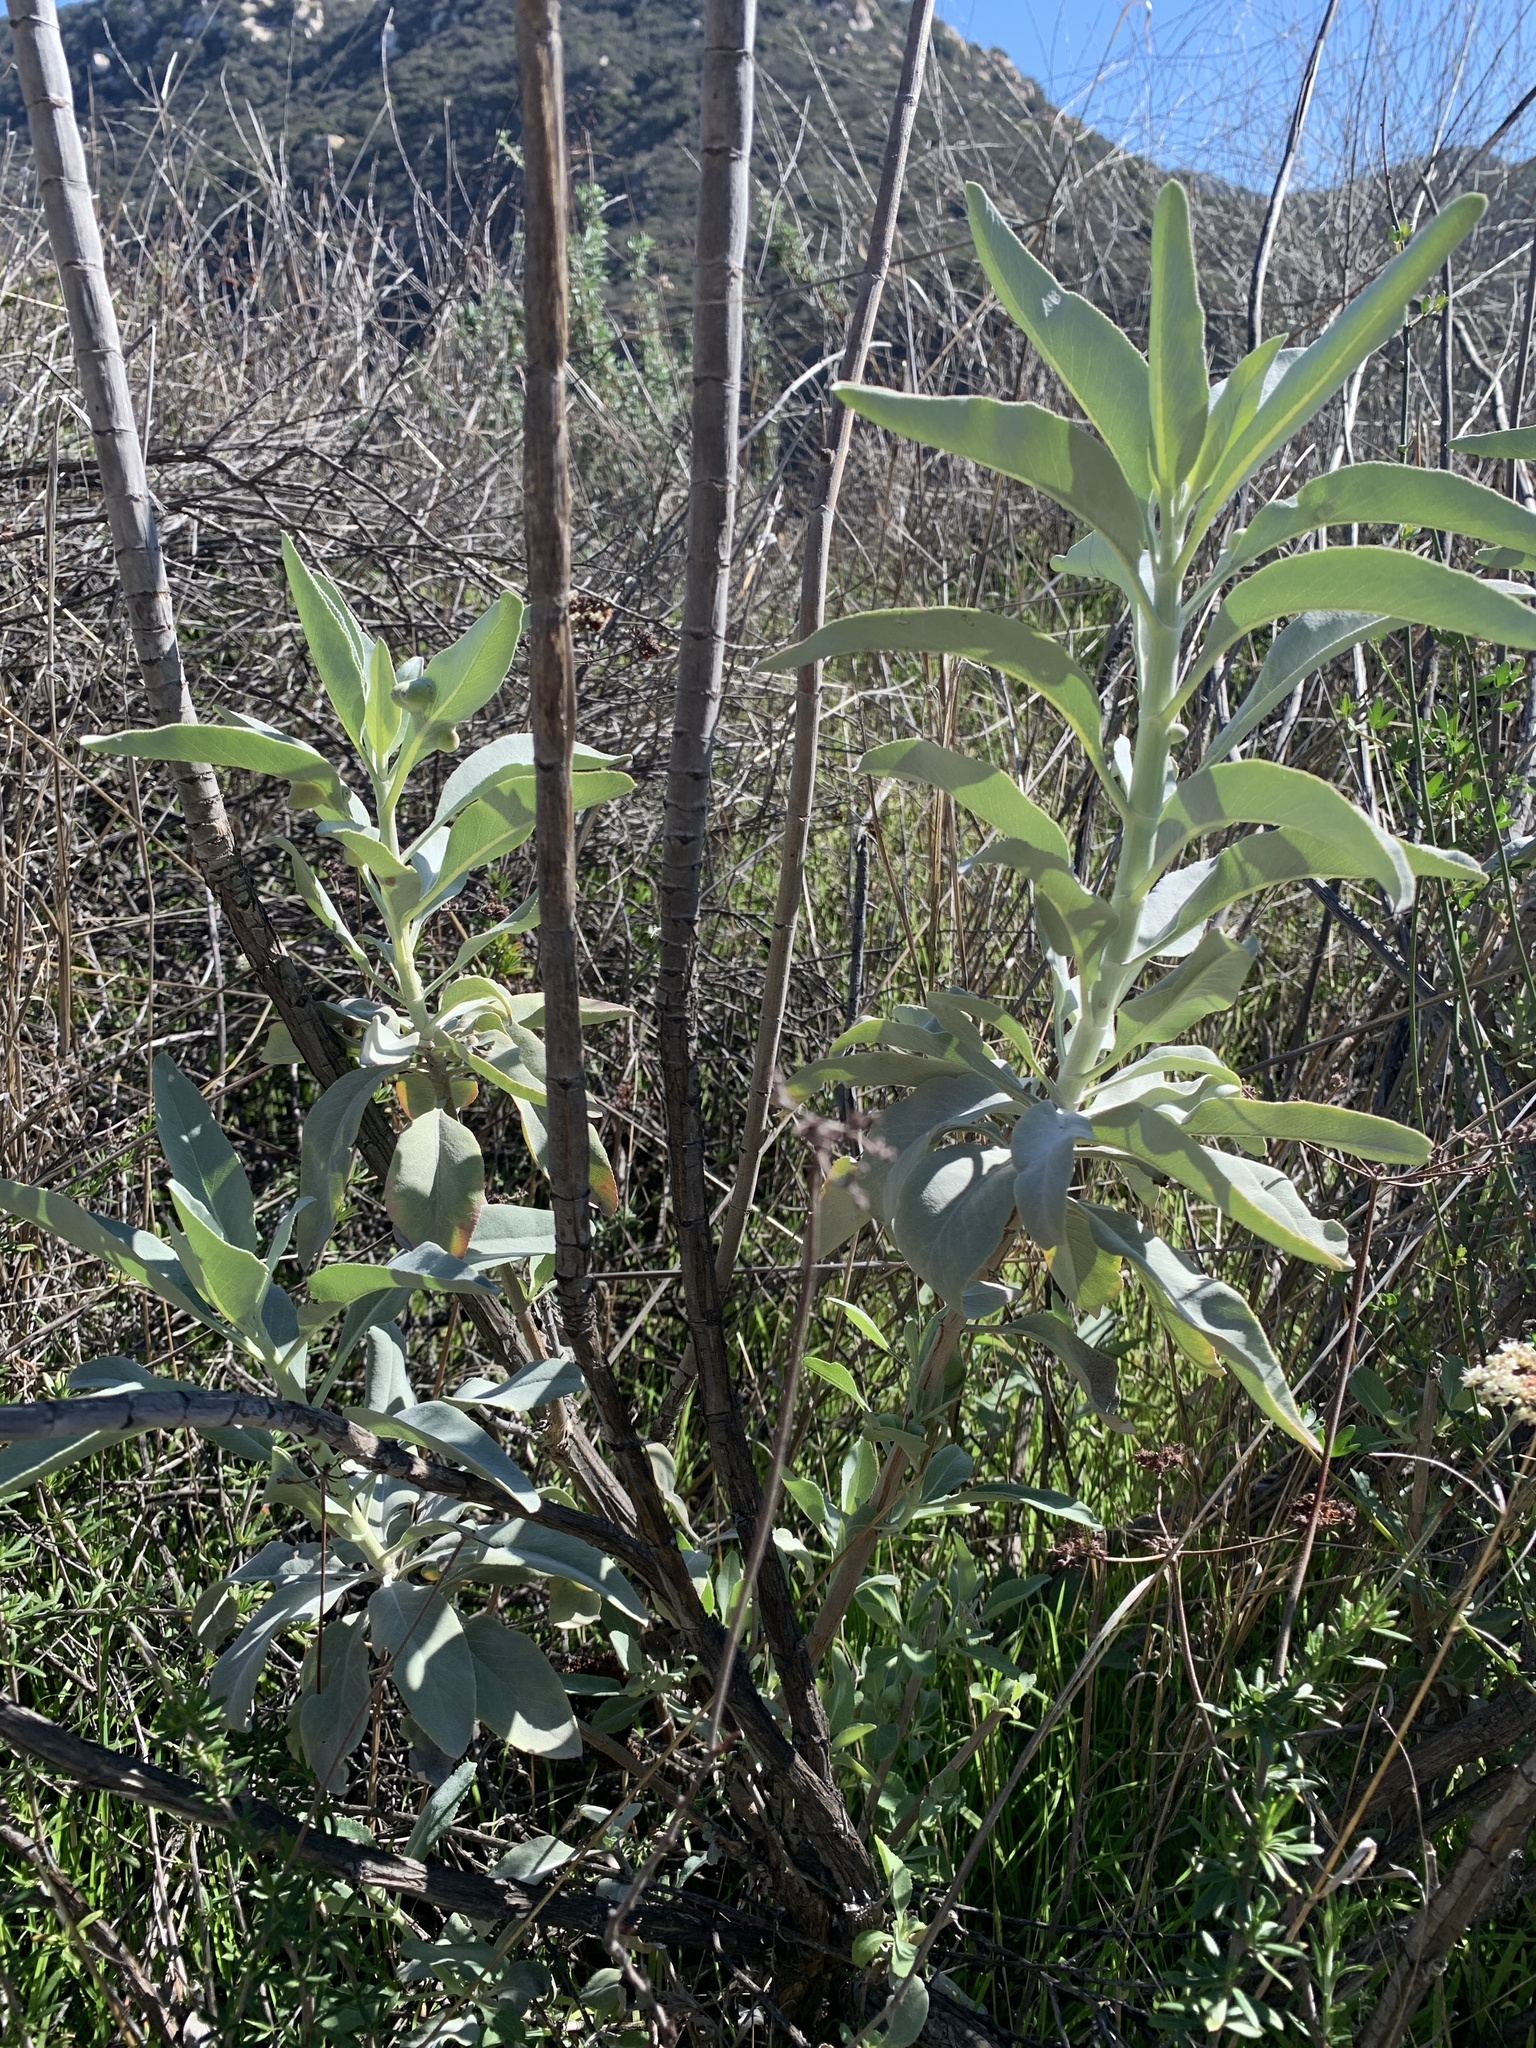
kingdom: Plantae
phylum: Tracheophyta
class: Magnoliopsida
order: Lamiales
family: Lamiaceae
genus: Salvia
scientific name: Salvia apiana
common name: White sage
